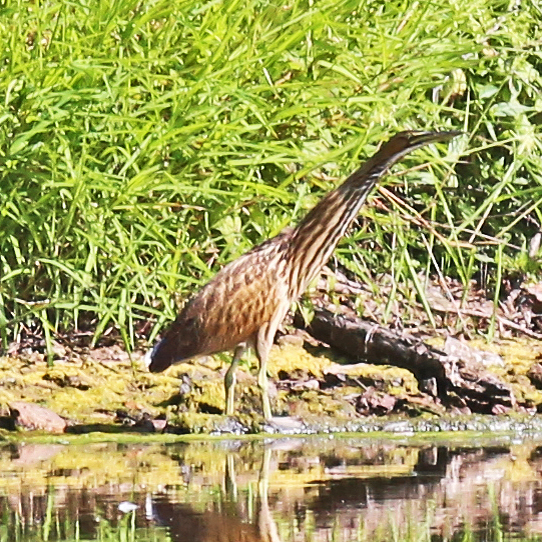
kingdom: Animalia
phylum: Chordata
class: Aves
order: Pelecaniformes
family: Ardeidae
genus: Botaurus
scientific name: Botaurus lentiginosus
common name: American bittern
